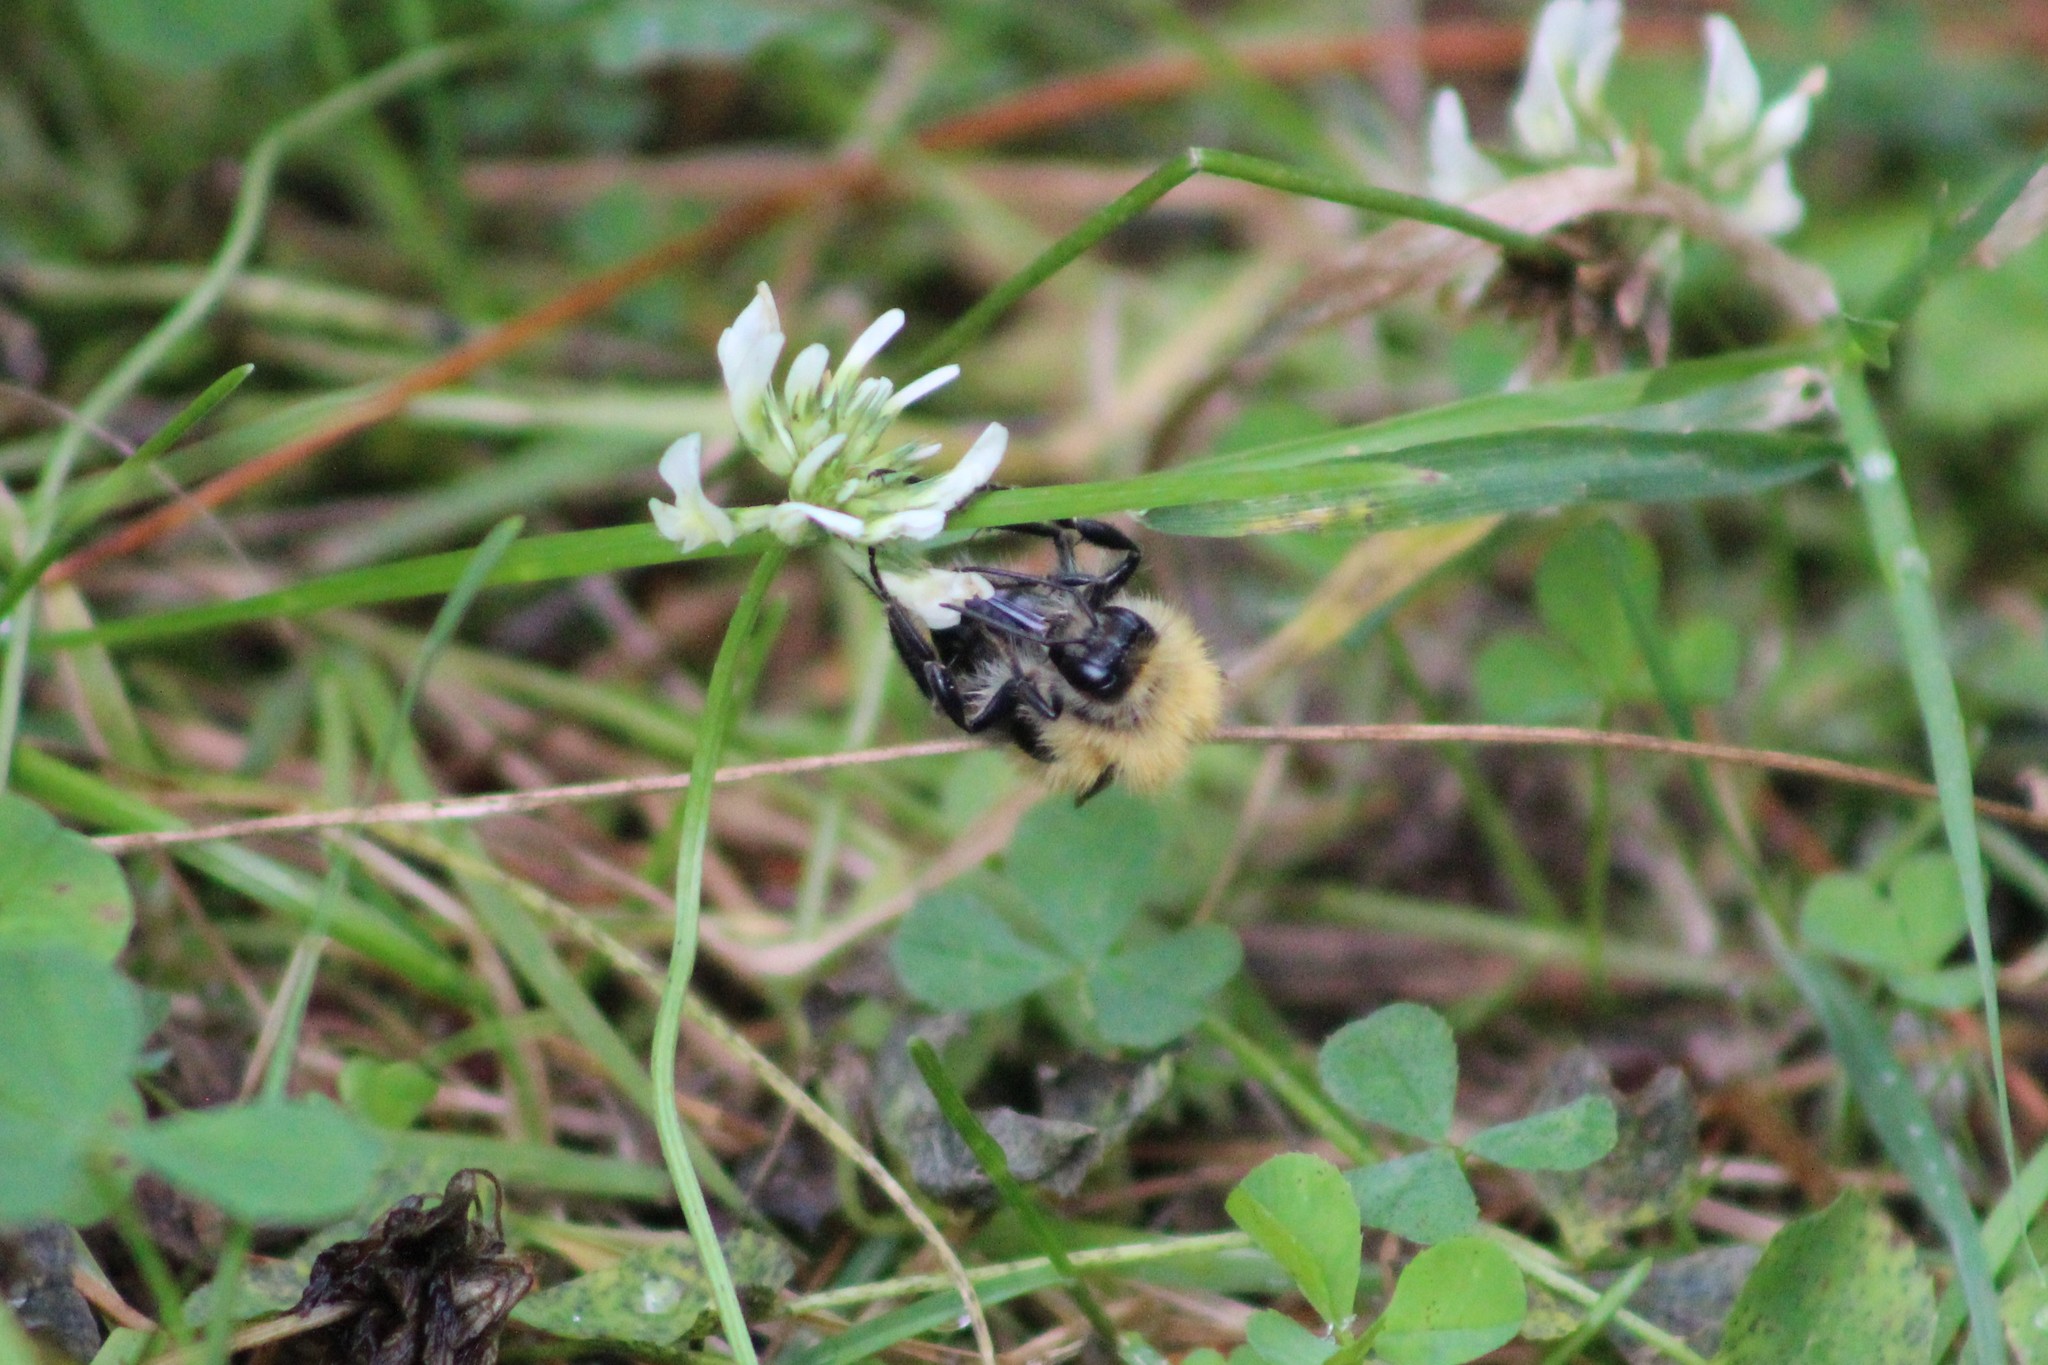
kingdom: Animalia
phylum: Arthropoda
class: Insecta
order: Hymenoptera
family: Apidae
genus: Bombus
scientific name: Bombus hypnorum
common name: New garden bumblebee
